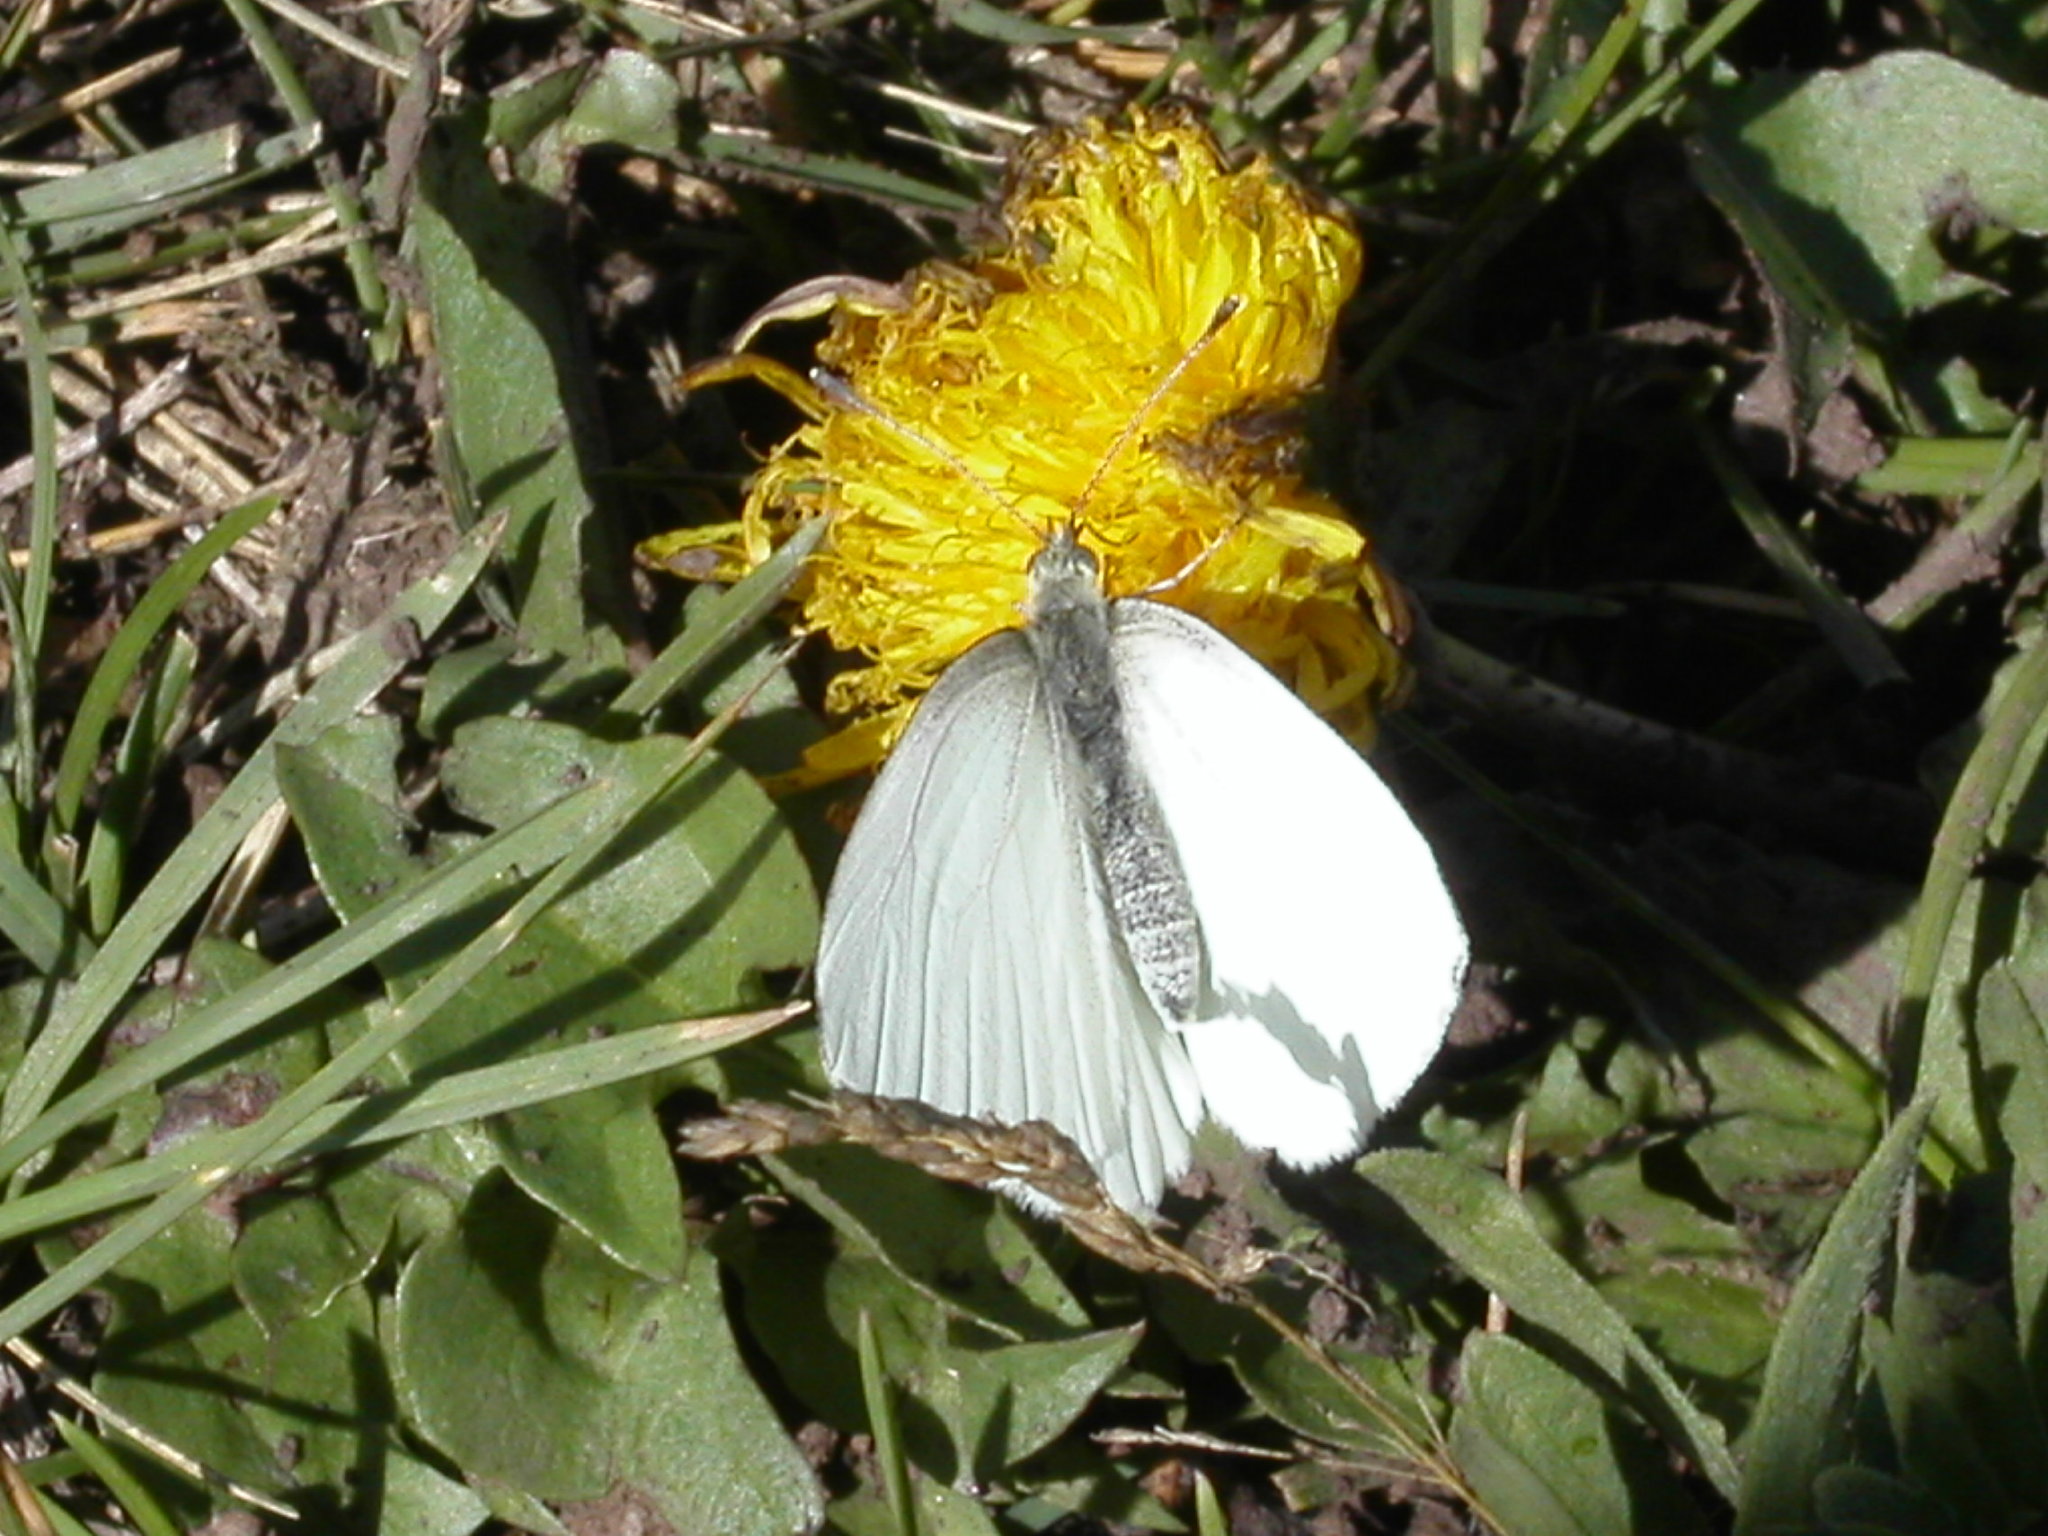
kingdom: Animalia
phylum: Arthropoda
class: Insecta
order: Lepidoptera
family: Pieridae
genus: Pieris
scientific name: Pieris marginalis
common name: Margined white
